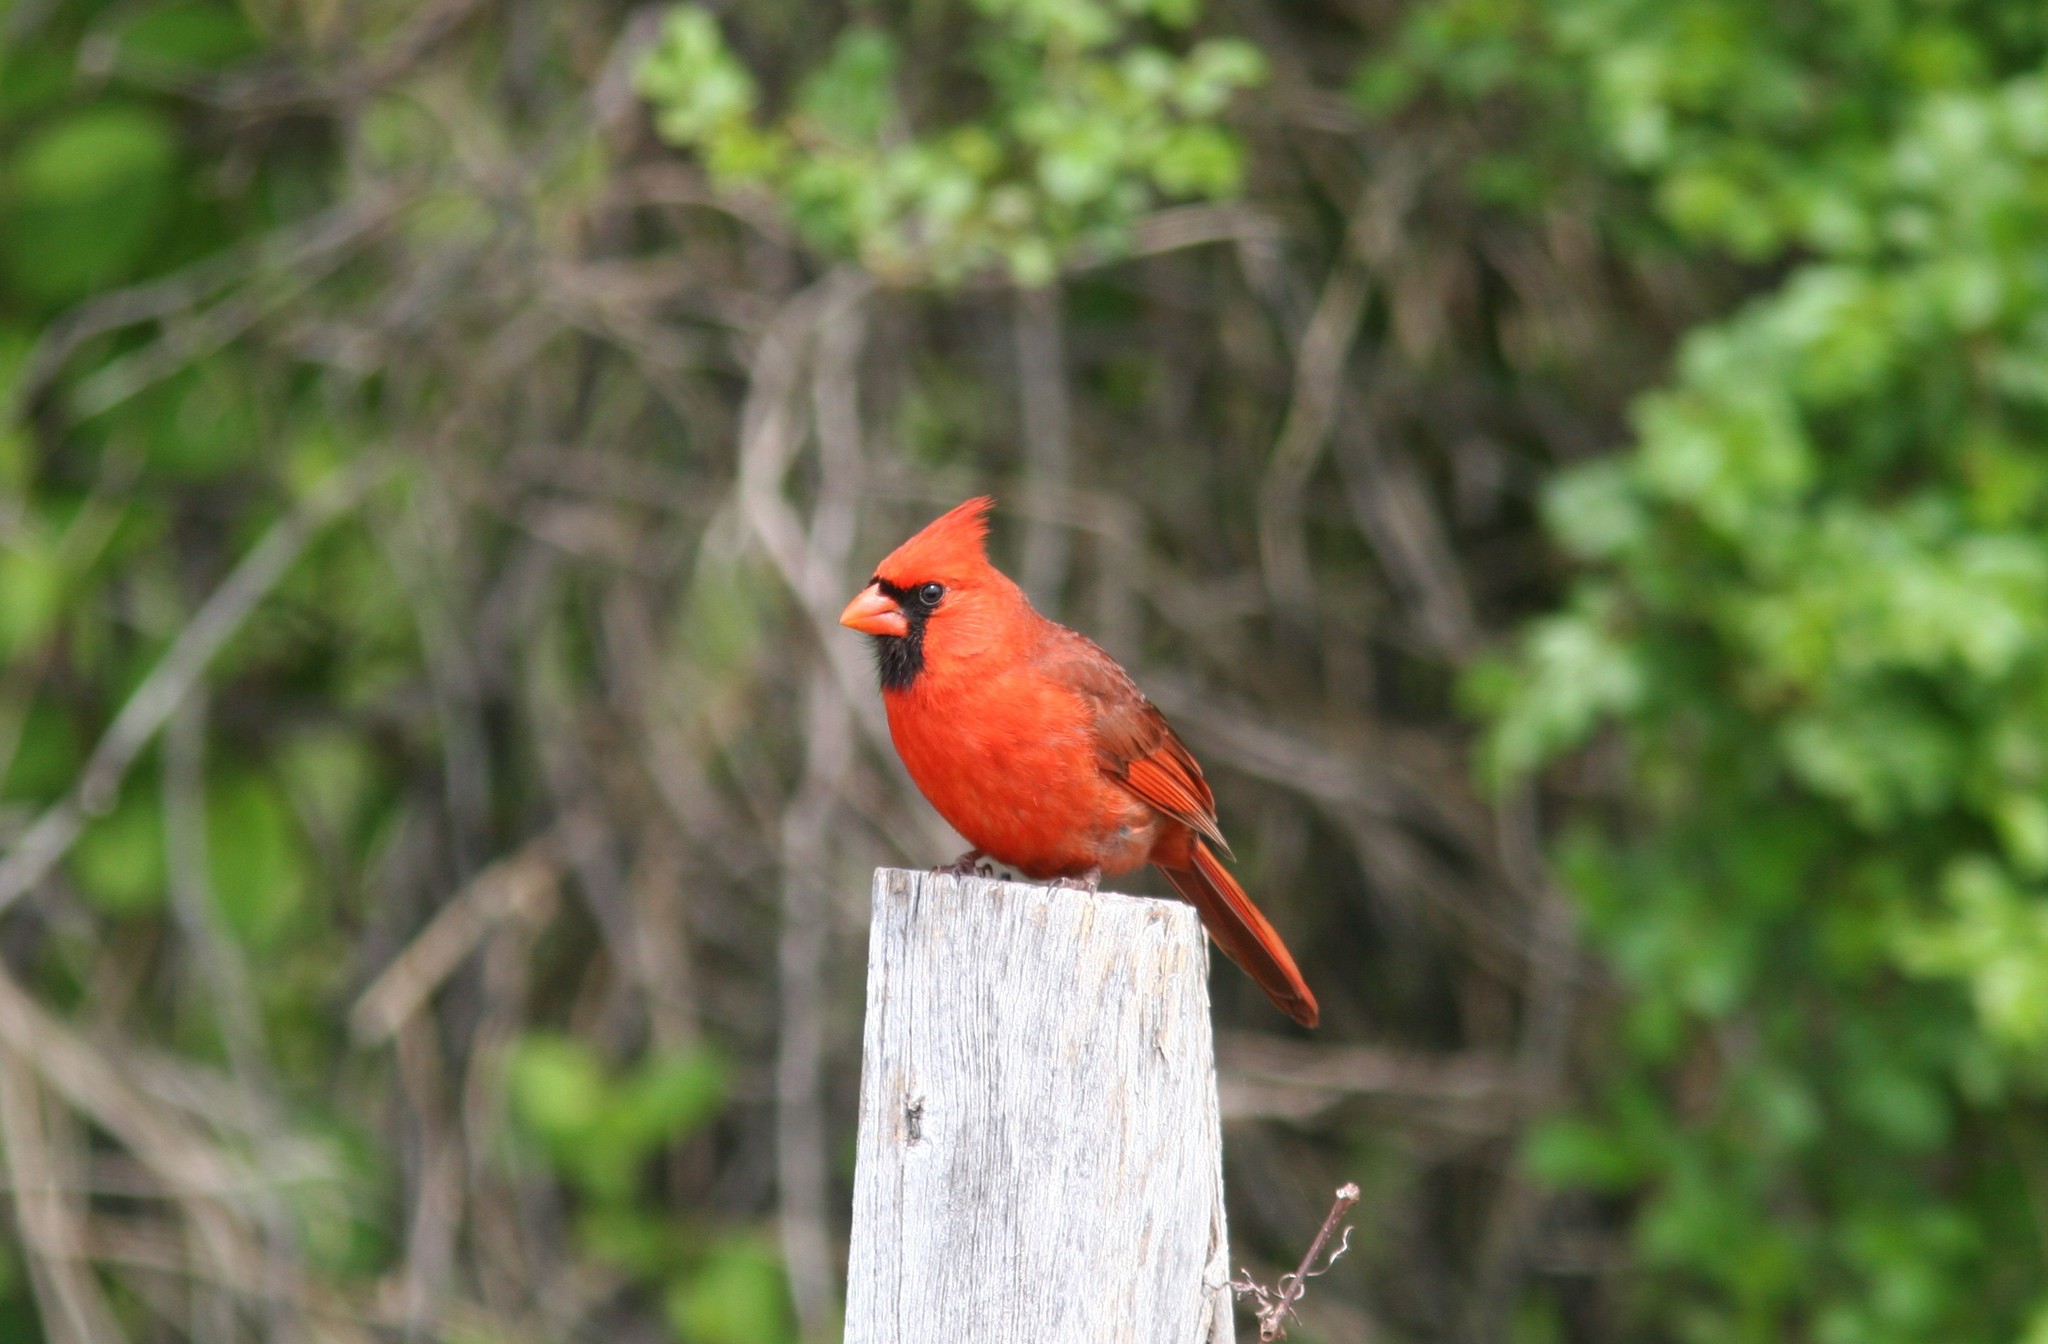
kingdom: Animalia
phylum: Chordata
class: Aves
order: Passeriformes
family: Cardinalidae
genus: Cardinalis
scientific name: Cardinalis cardinalis
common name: Northern cardinal
